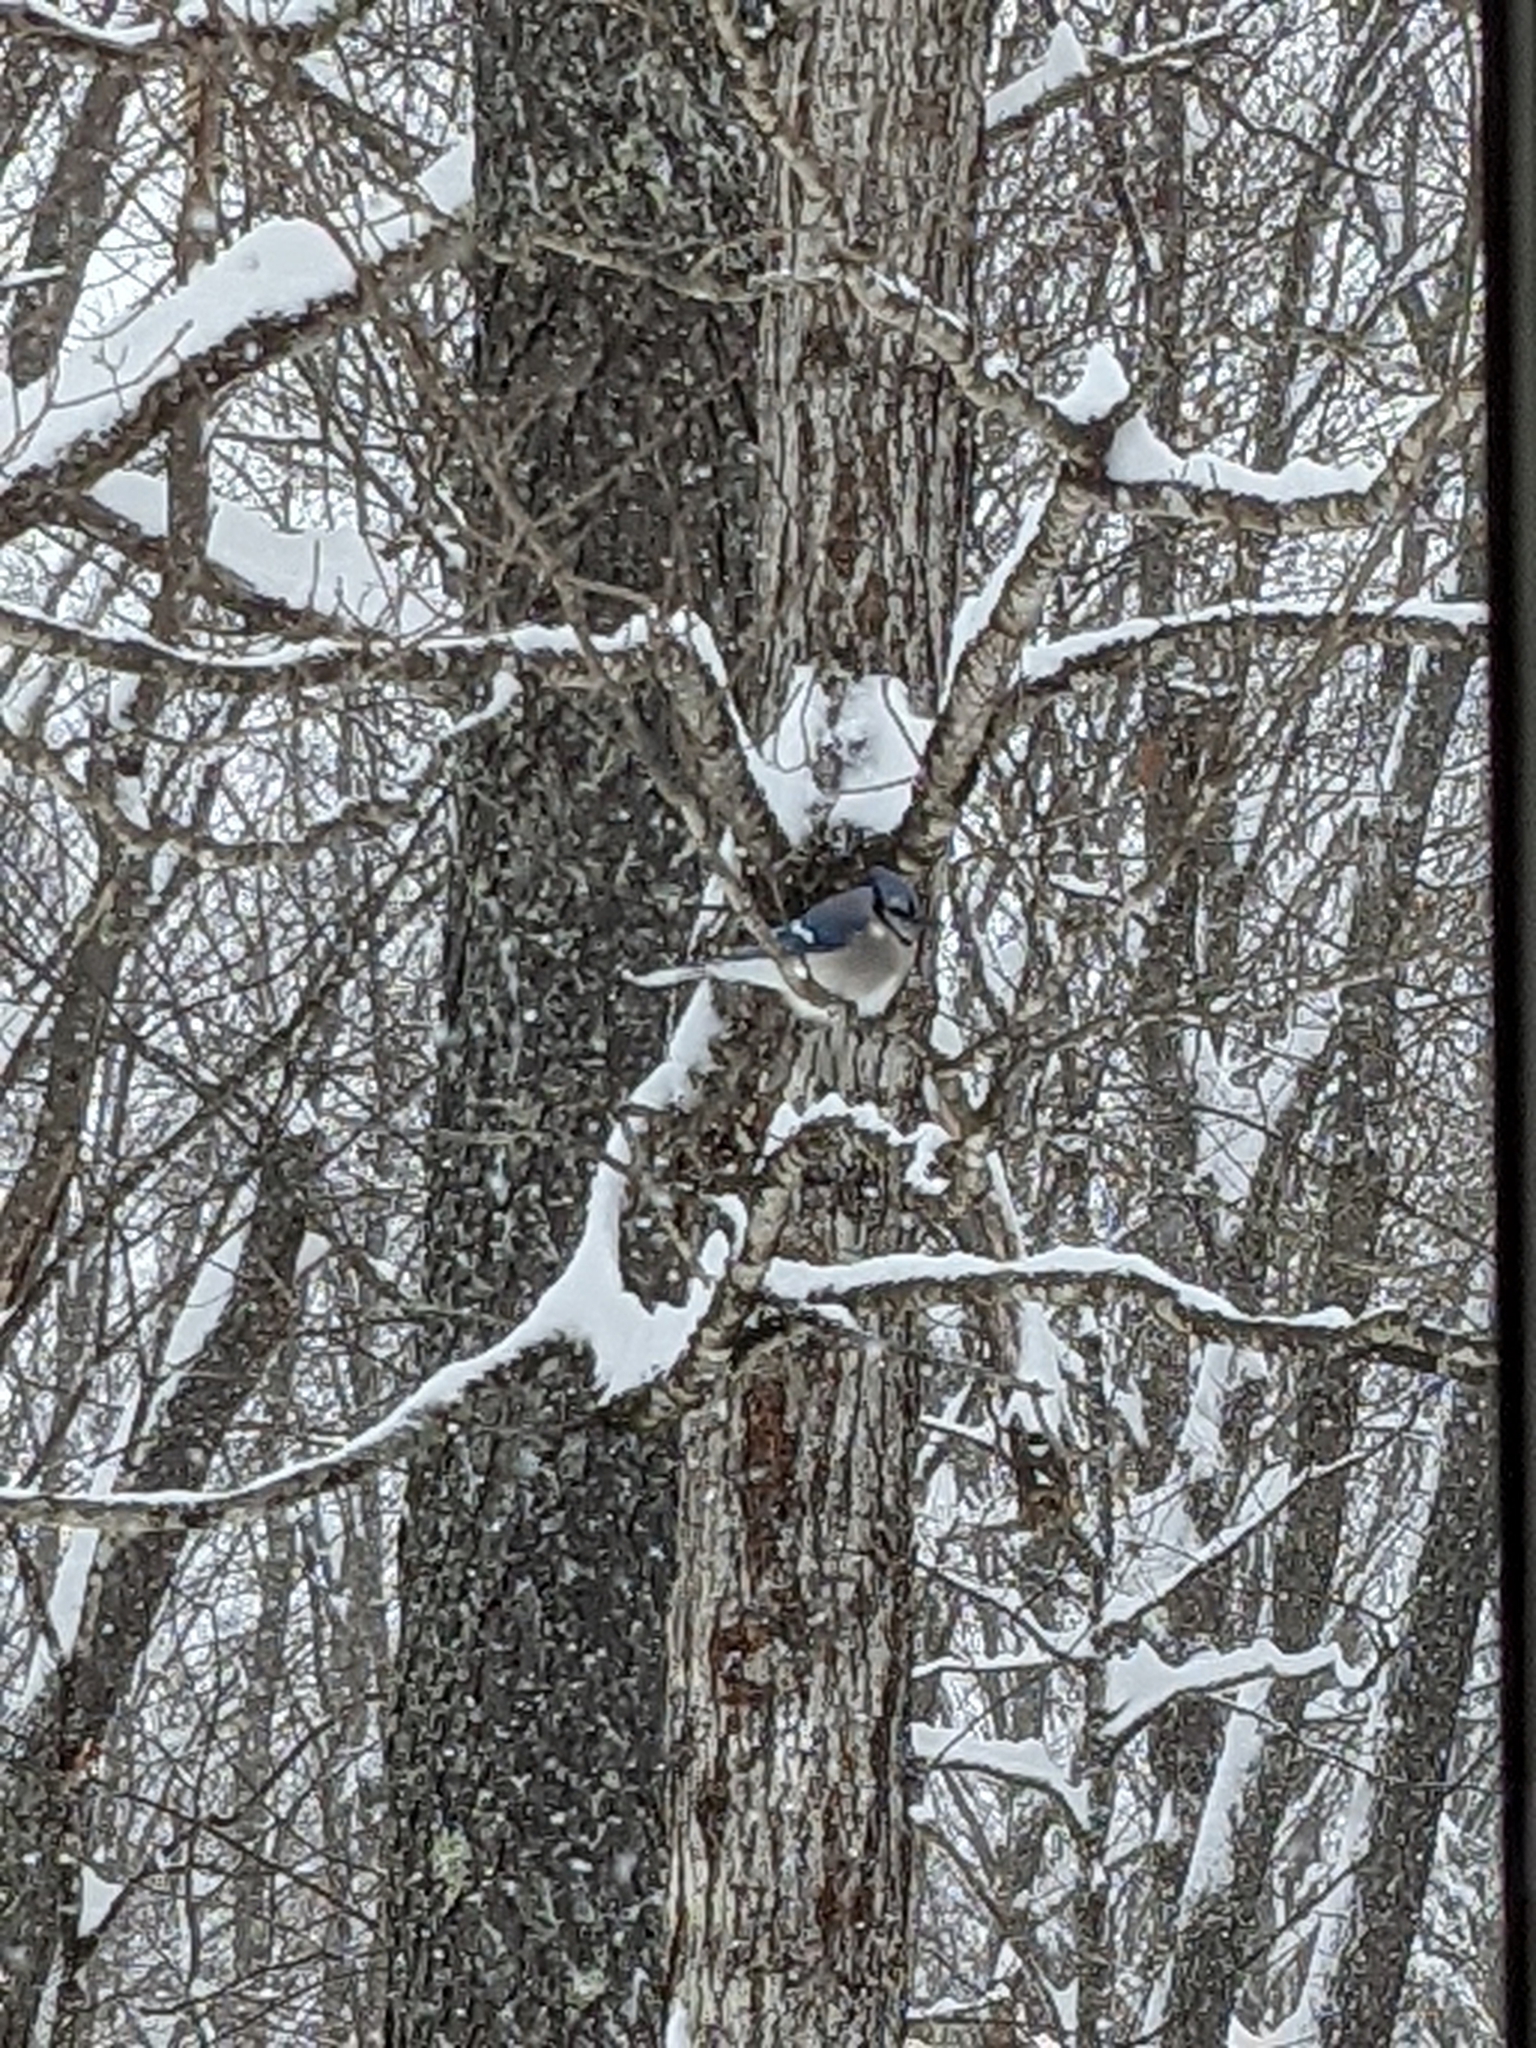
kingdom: Animalia
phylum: Chordata
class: Aves
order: Passeriformes
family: Corvidae
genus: Cyanocitta
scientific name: Cyanocitta cristata
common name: Blue jay
